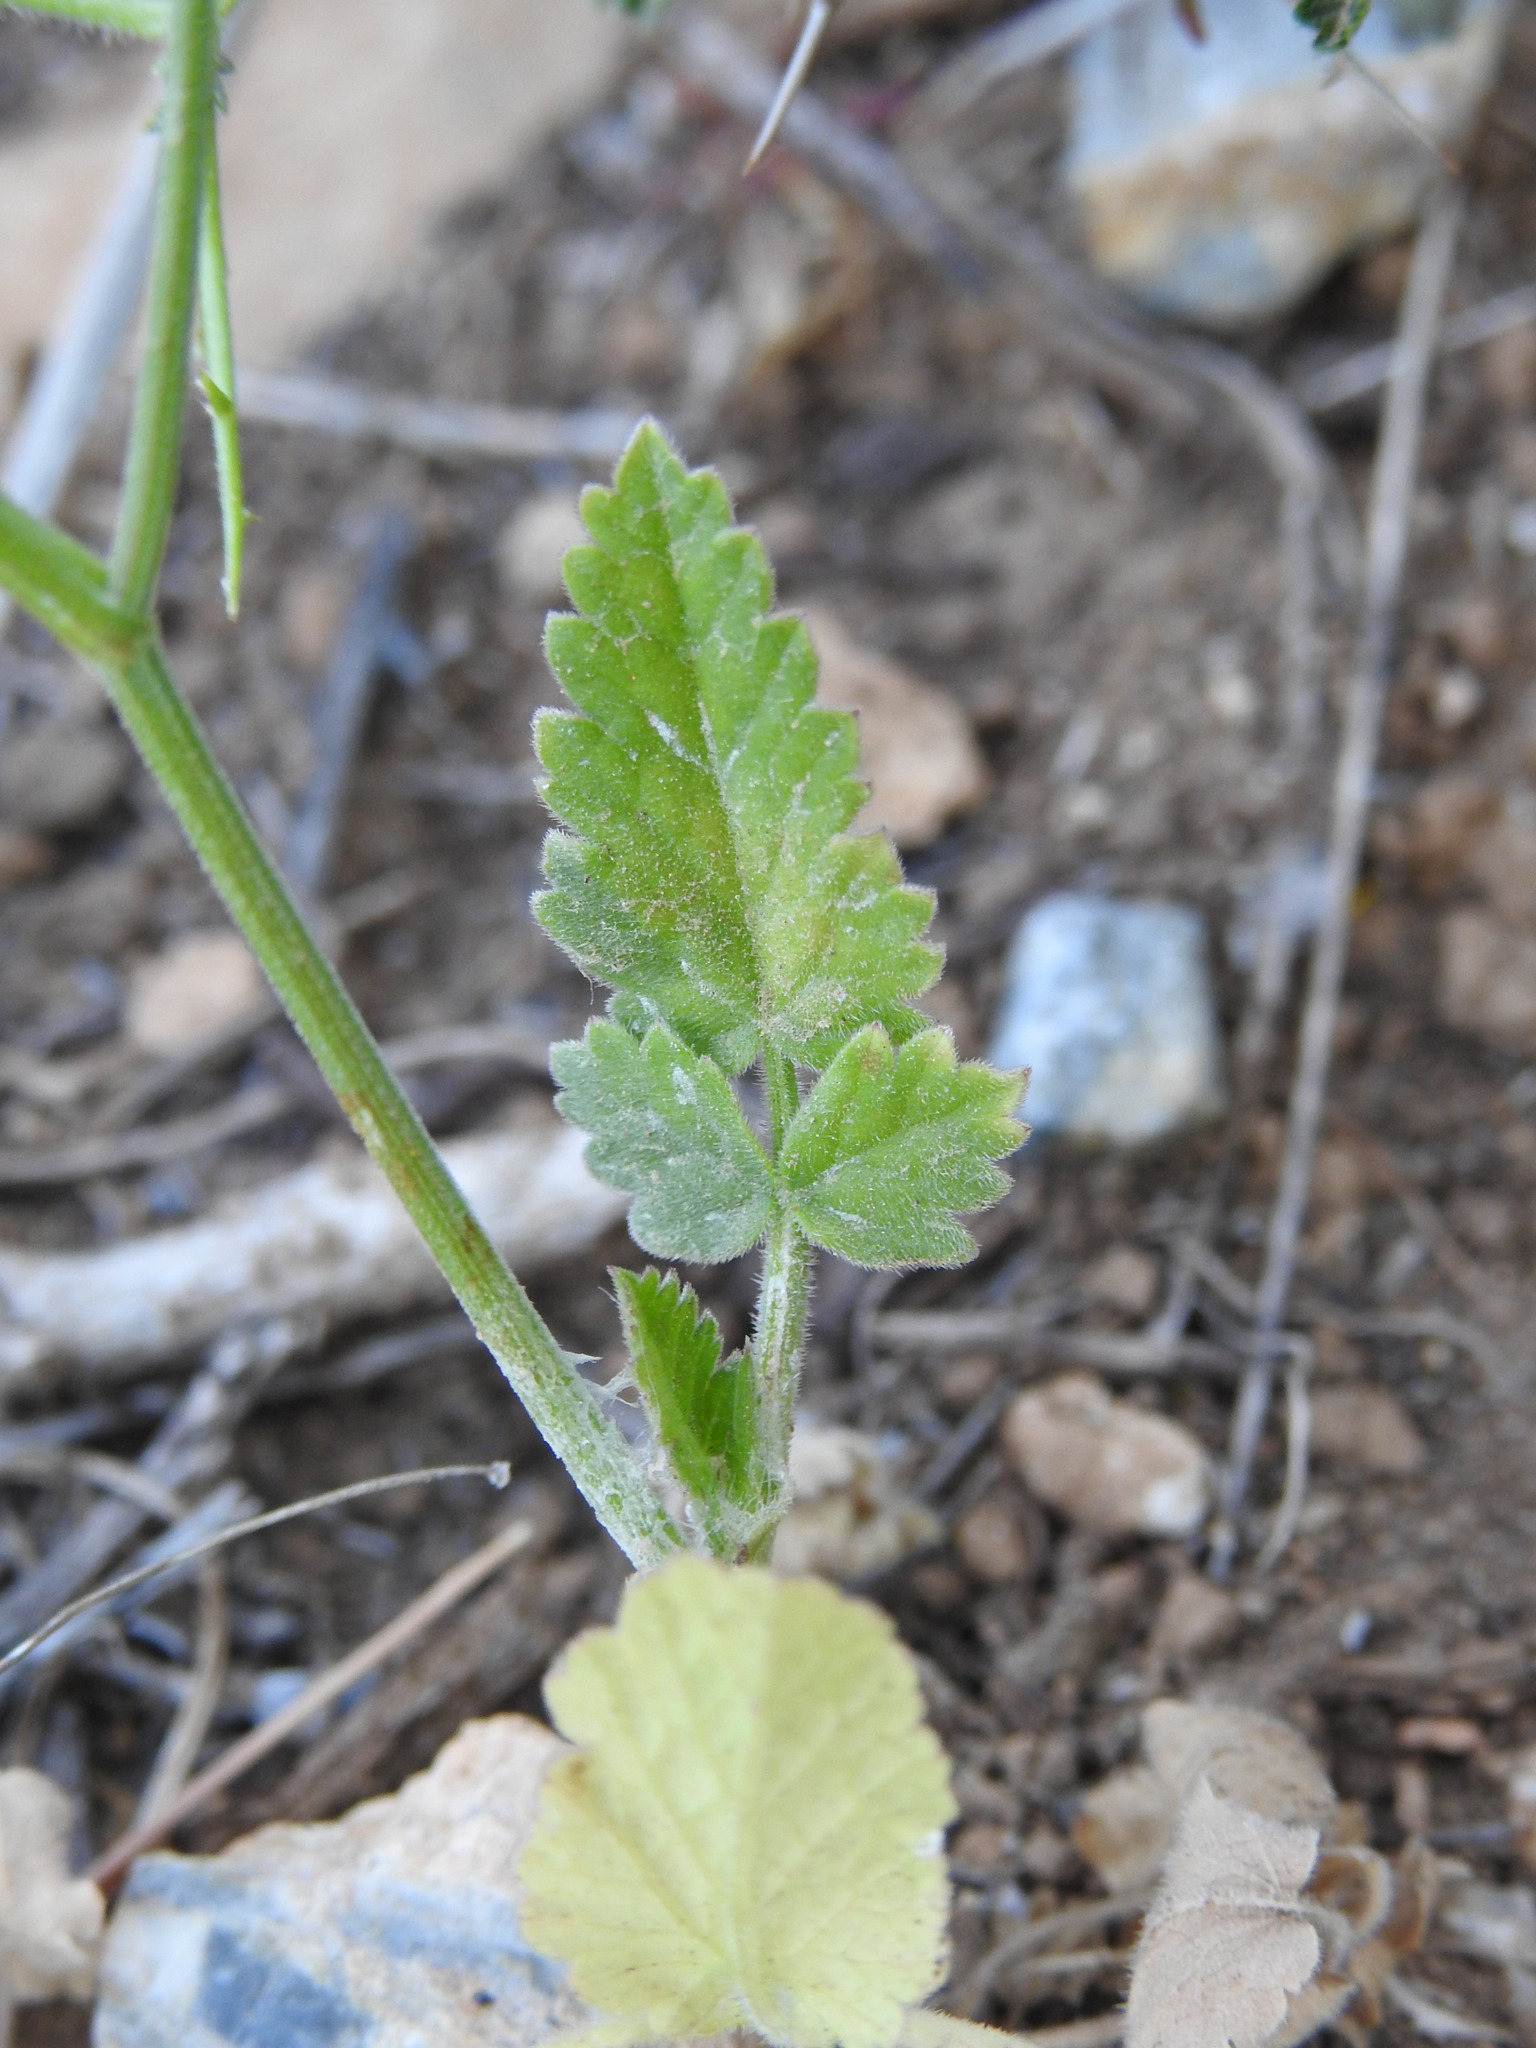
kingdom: Plantae
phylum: Tracheophyta
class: Magnoliopsida
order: Apiales
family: Apiaceae
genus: Tordylium
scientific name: Tordylium officinale
